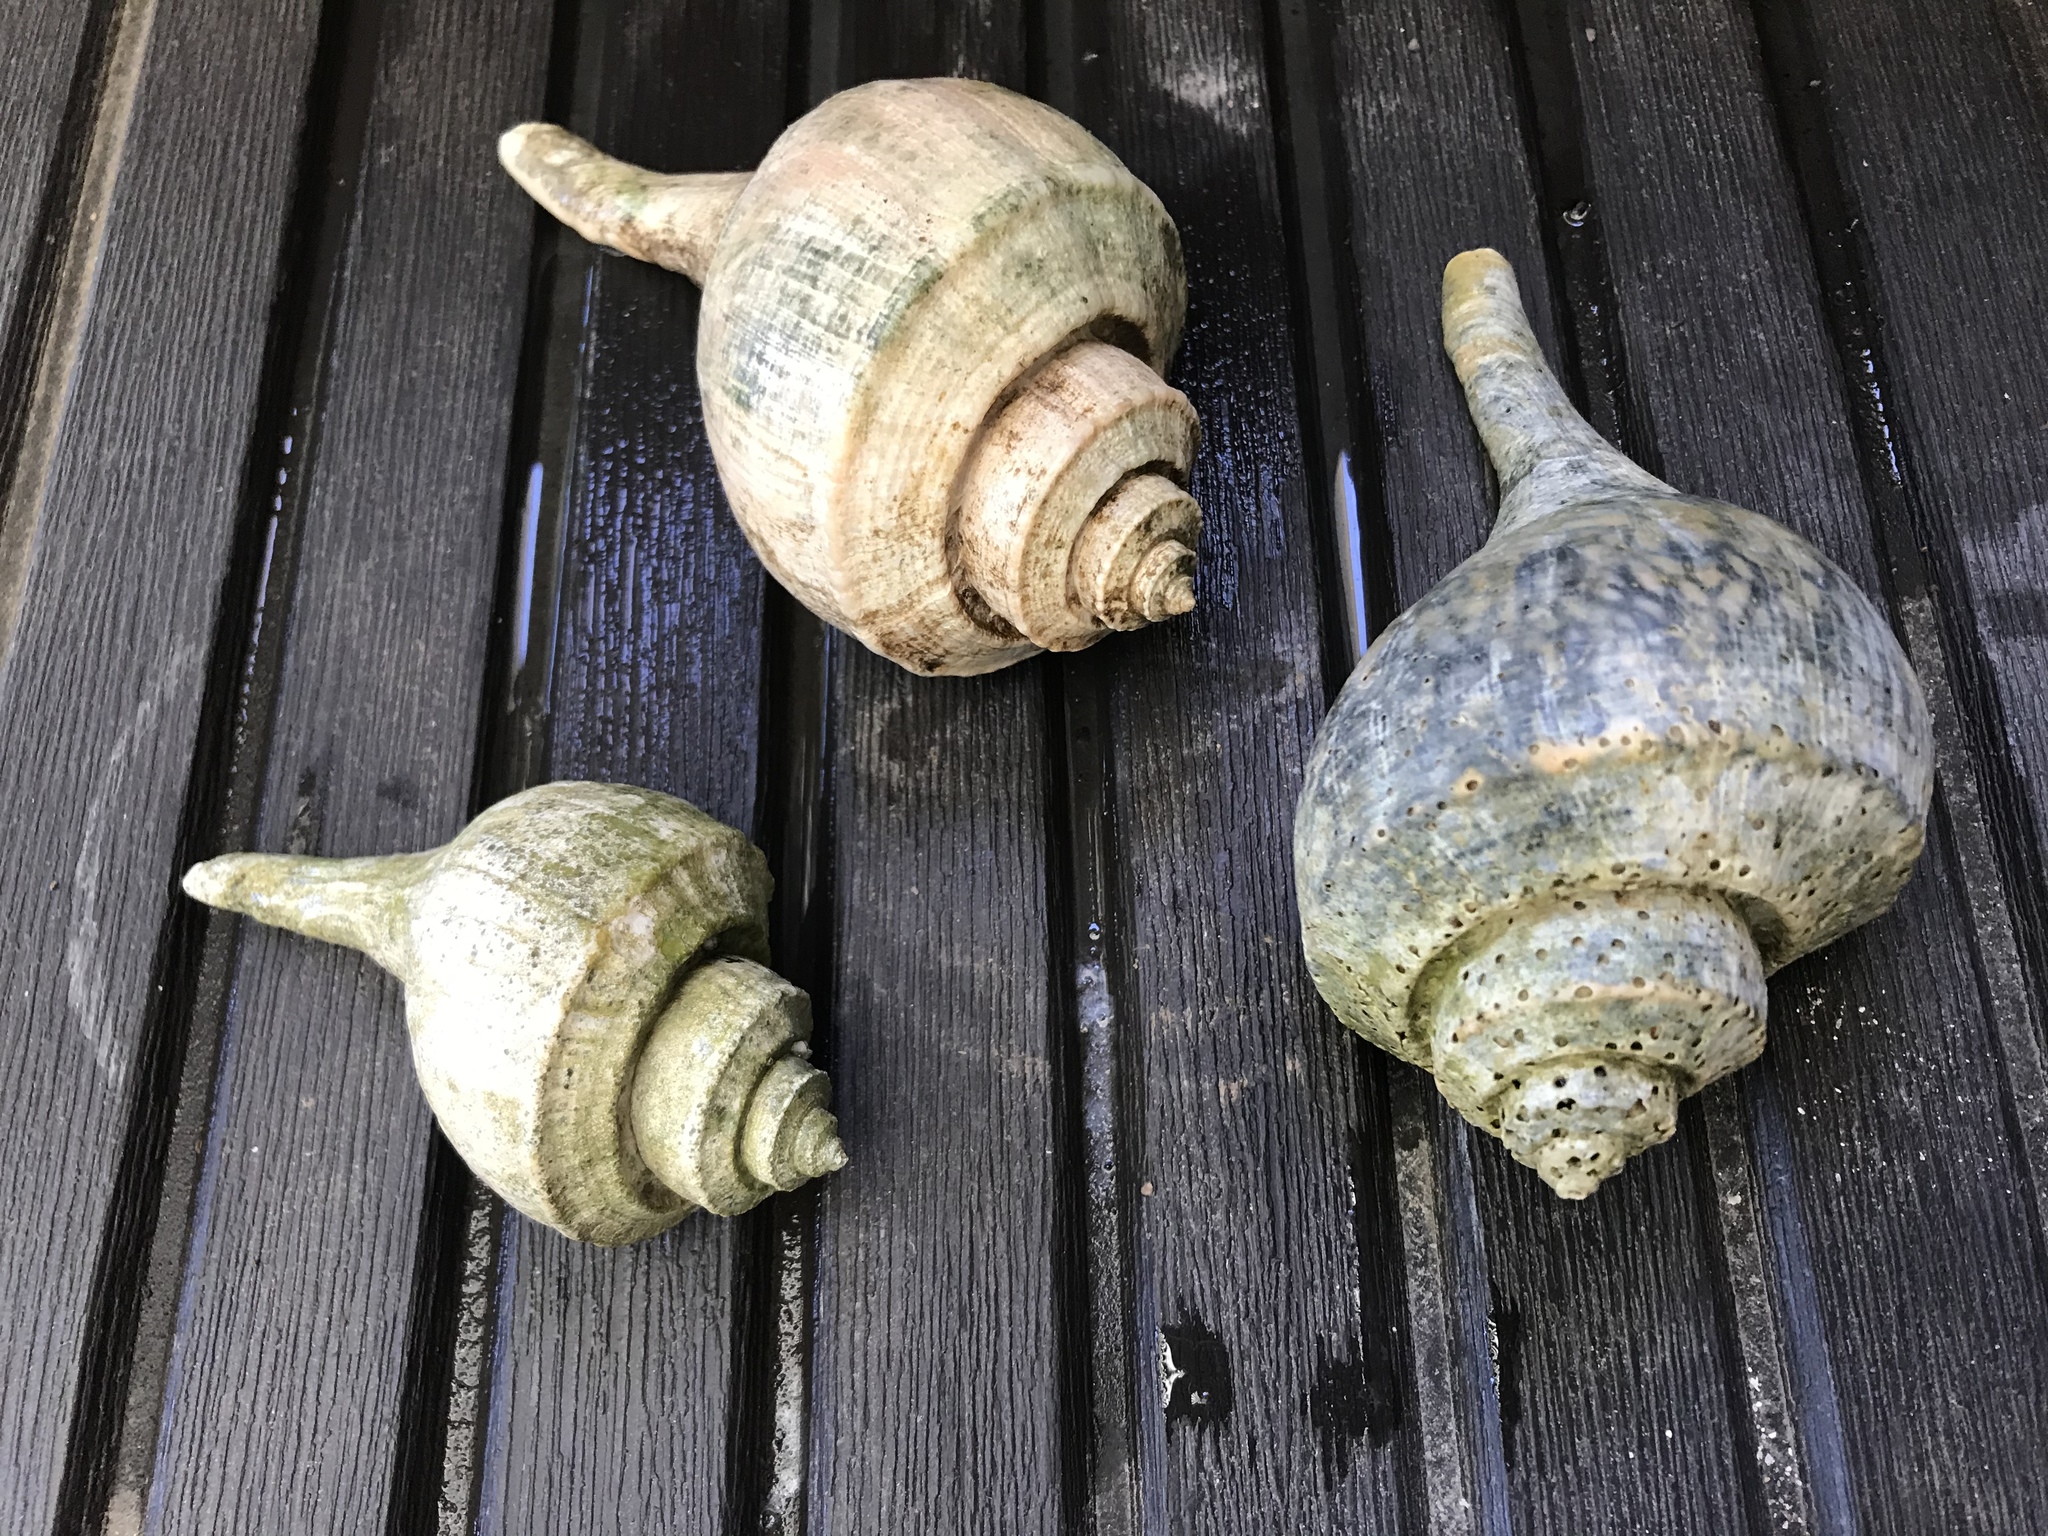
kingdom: Animalia
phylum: Mollusca
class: Gastropoda
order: Neogastropoda
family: Busyconidae
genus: Busycotypus
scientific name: Busycotypus canaliculatus
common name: Channeled whelk
